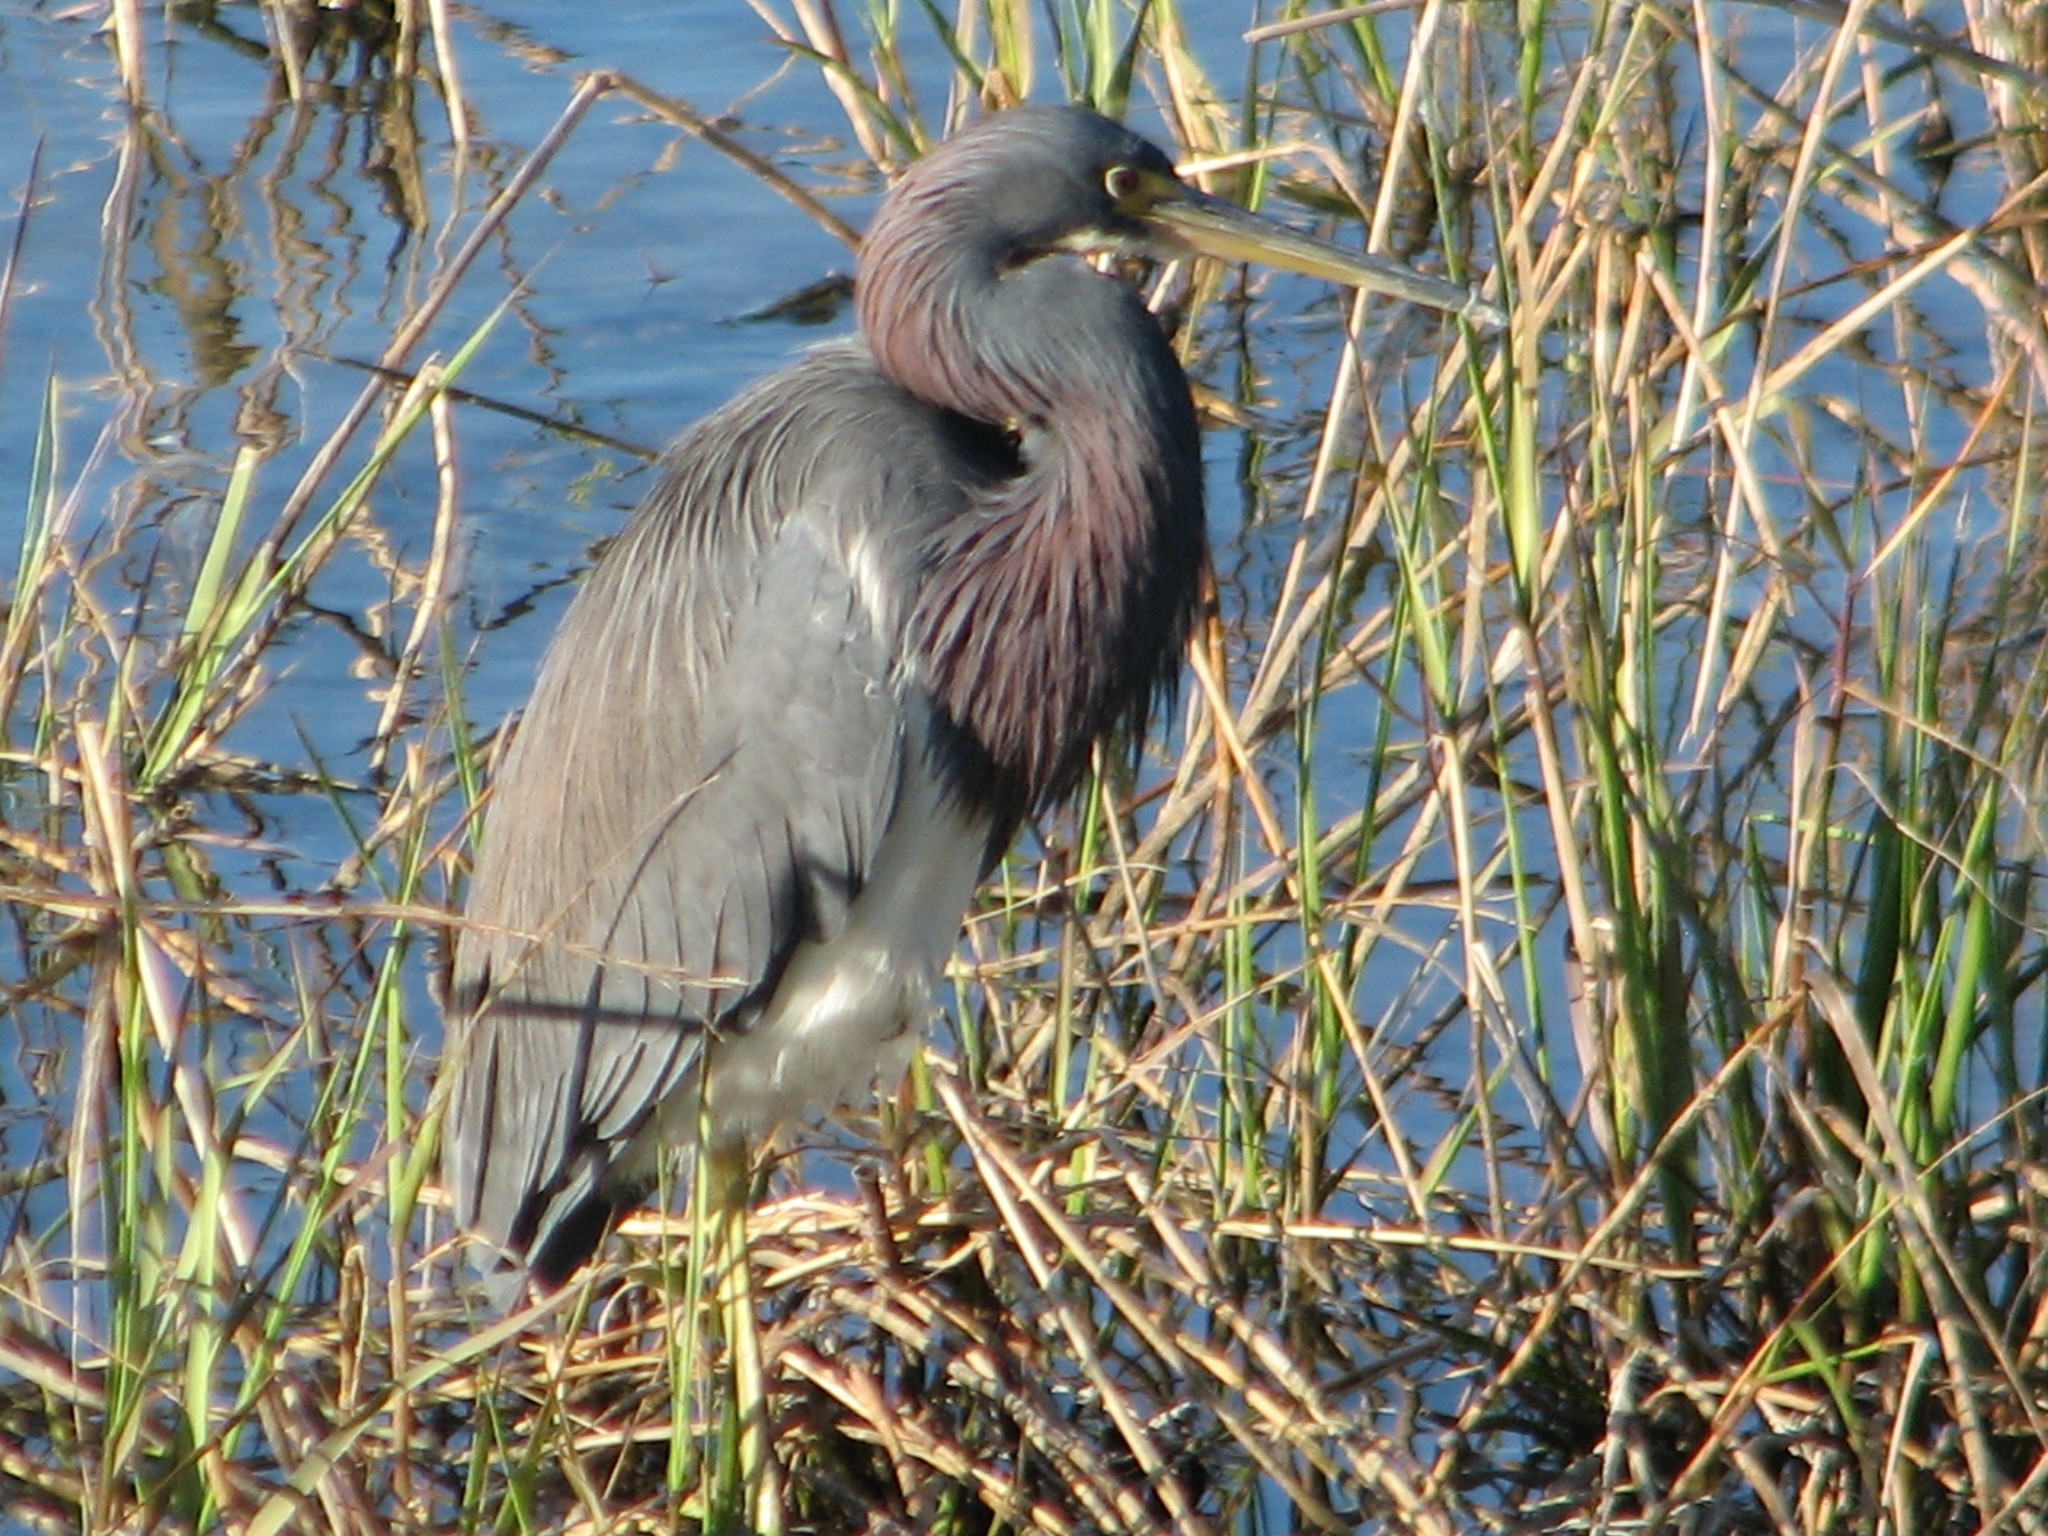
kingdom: Animalia
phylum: Chordata
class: Aves
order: Pelecaniformes
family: Ardeidae
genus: Egretta
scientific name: Egretta tricolor
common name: Tricolored heron
